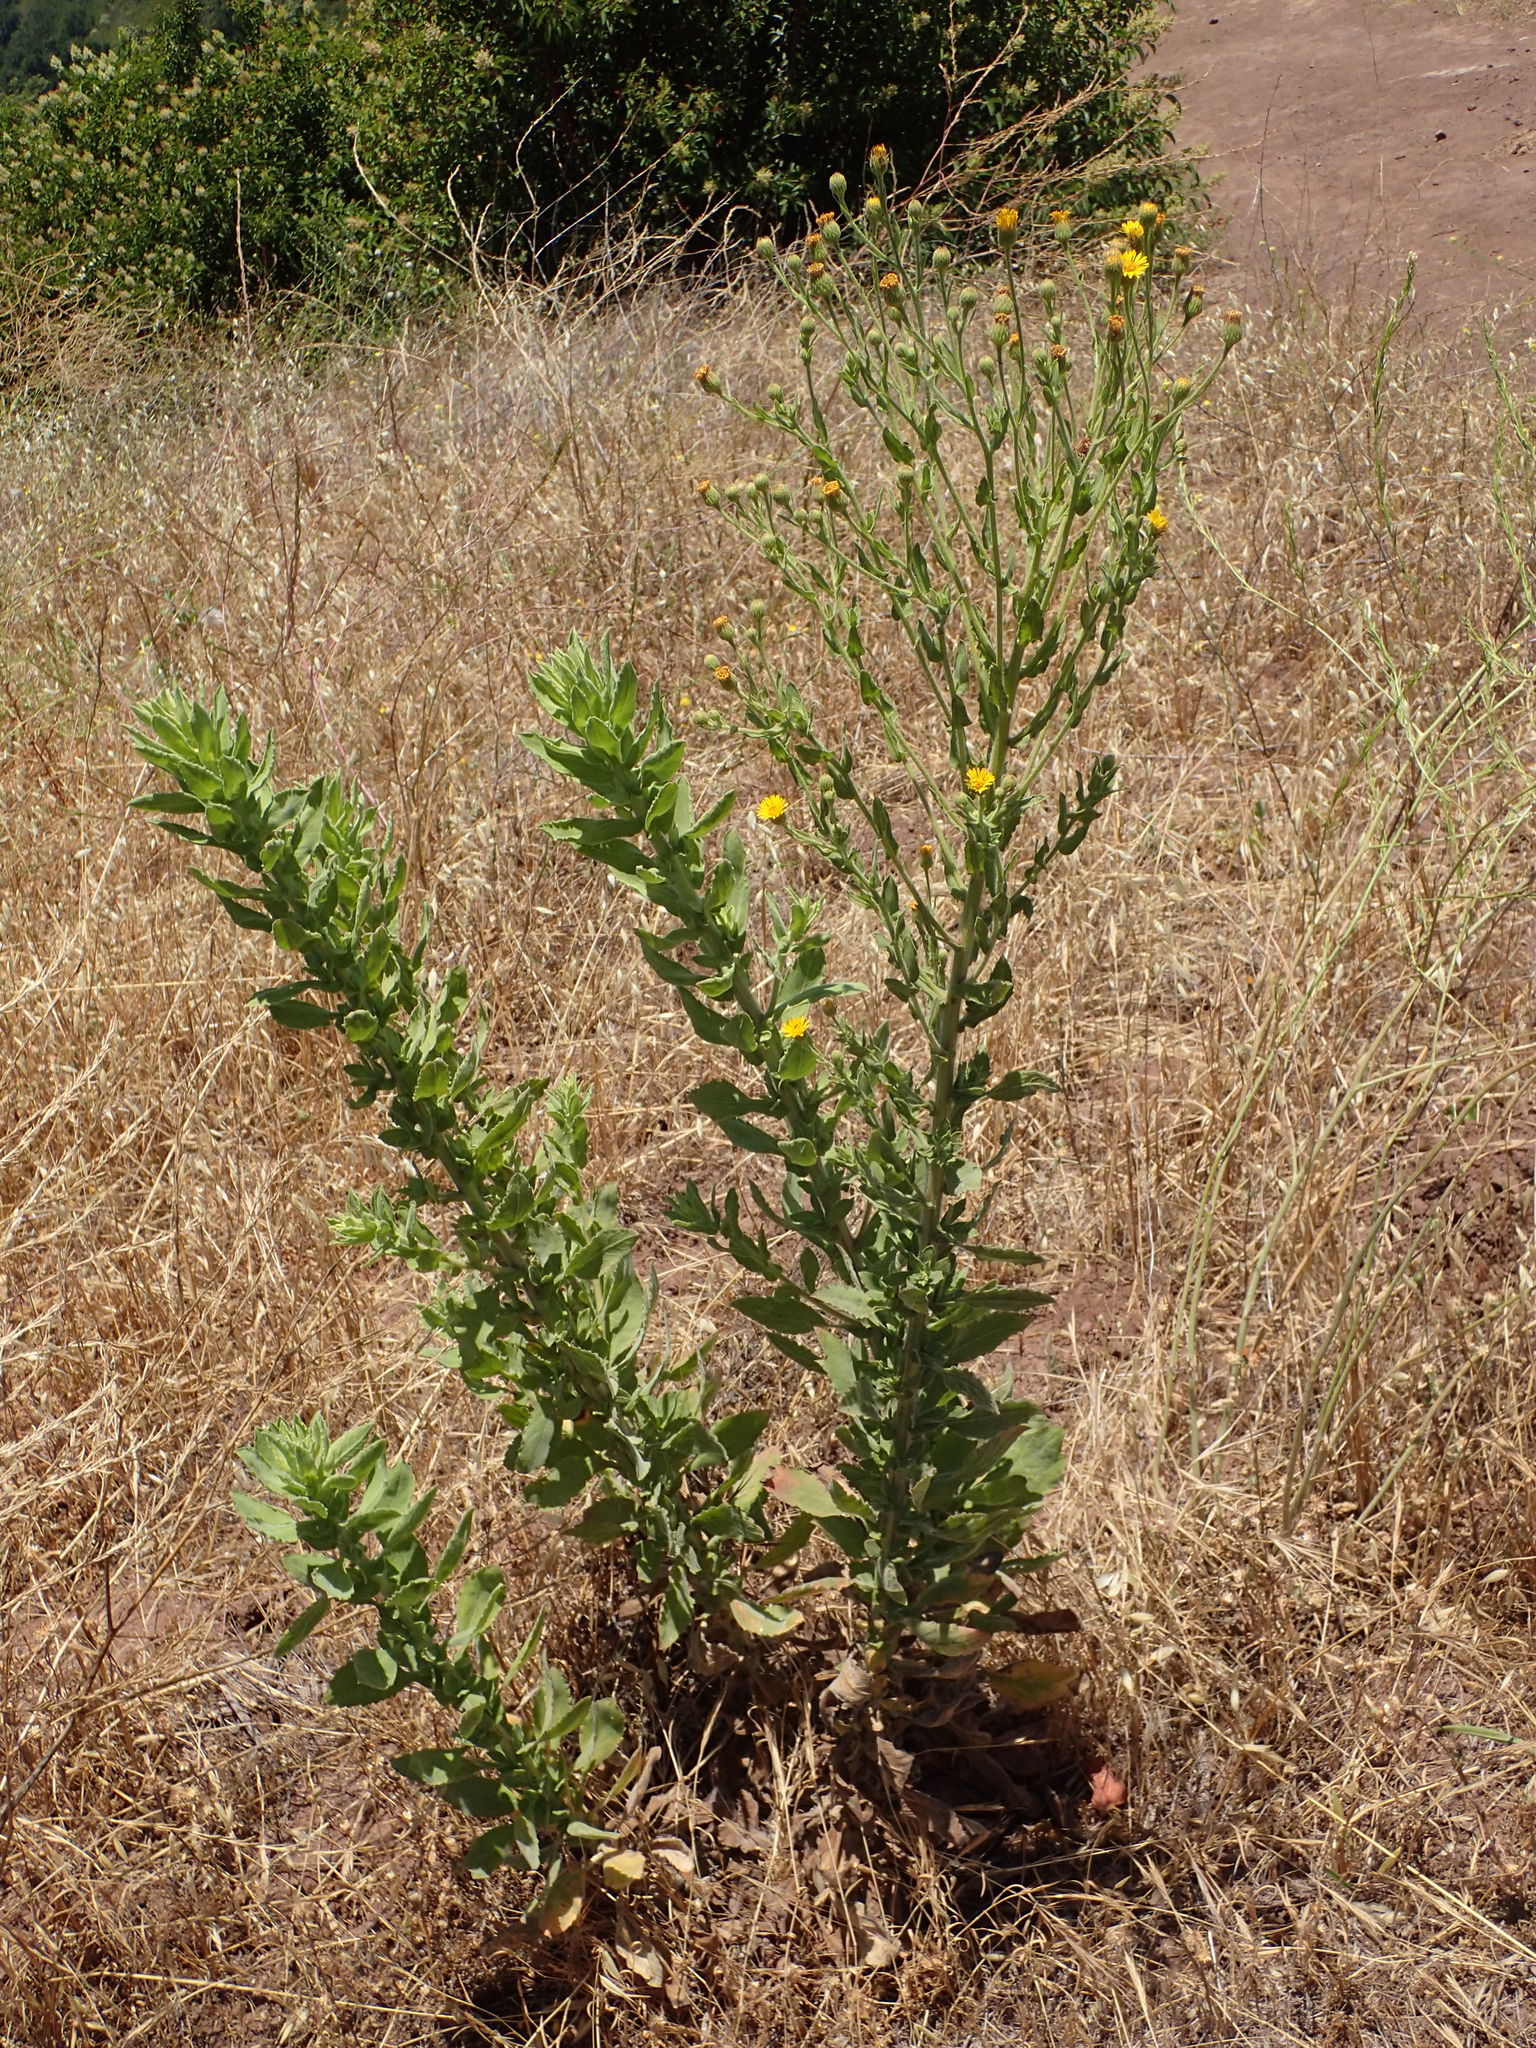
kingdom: Plantae
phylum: Tracheophyta
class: Magnoliopsida
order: Asterales
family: Asteraceae
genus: Heterotheca
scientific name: Heterotheca grandiflora
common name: Telegraphweed
